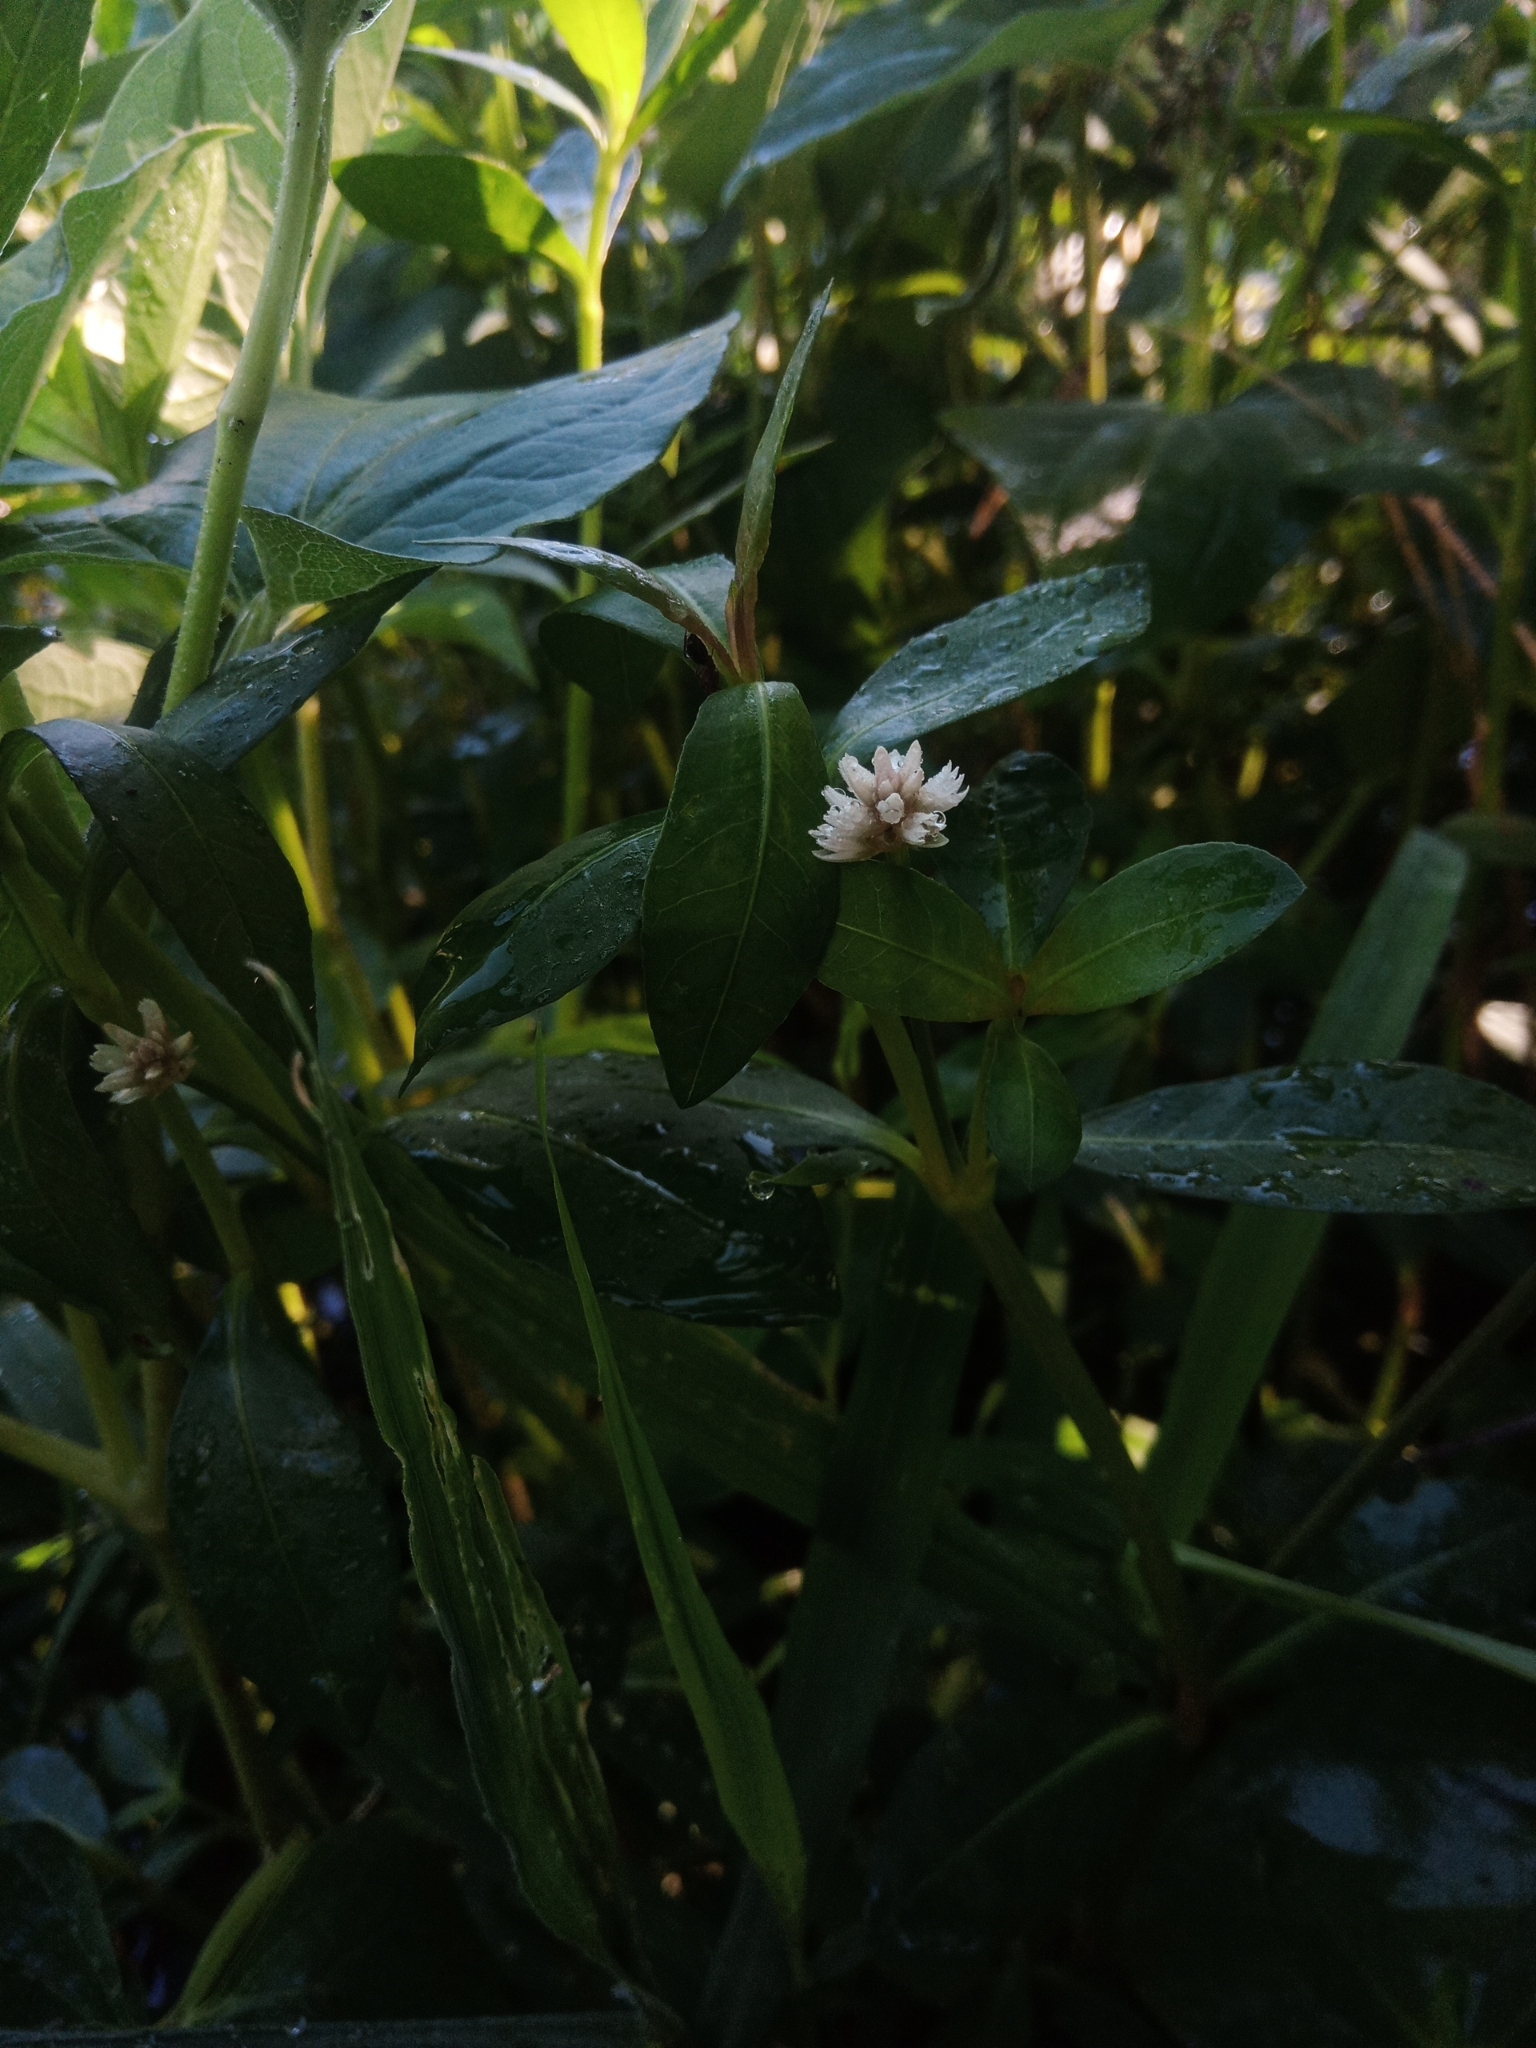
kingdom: Plantae
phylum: Tracheophyta
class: Magnoliopsida
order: Caryophyllales
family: Amaranthaceae
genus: Alternanthera
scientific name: Alternanthera philoxeroides
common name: Alligatorweed
